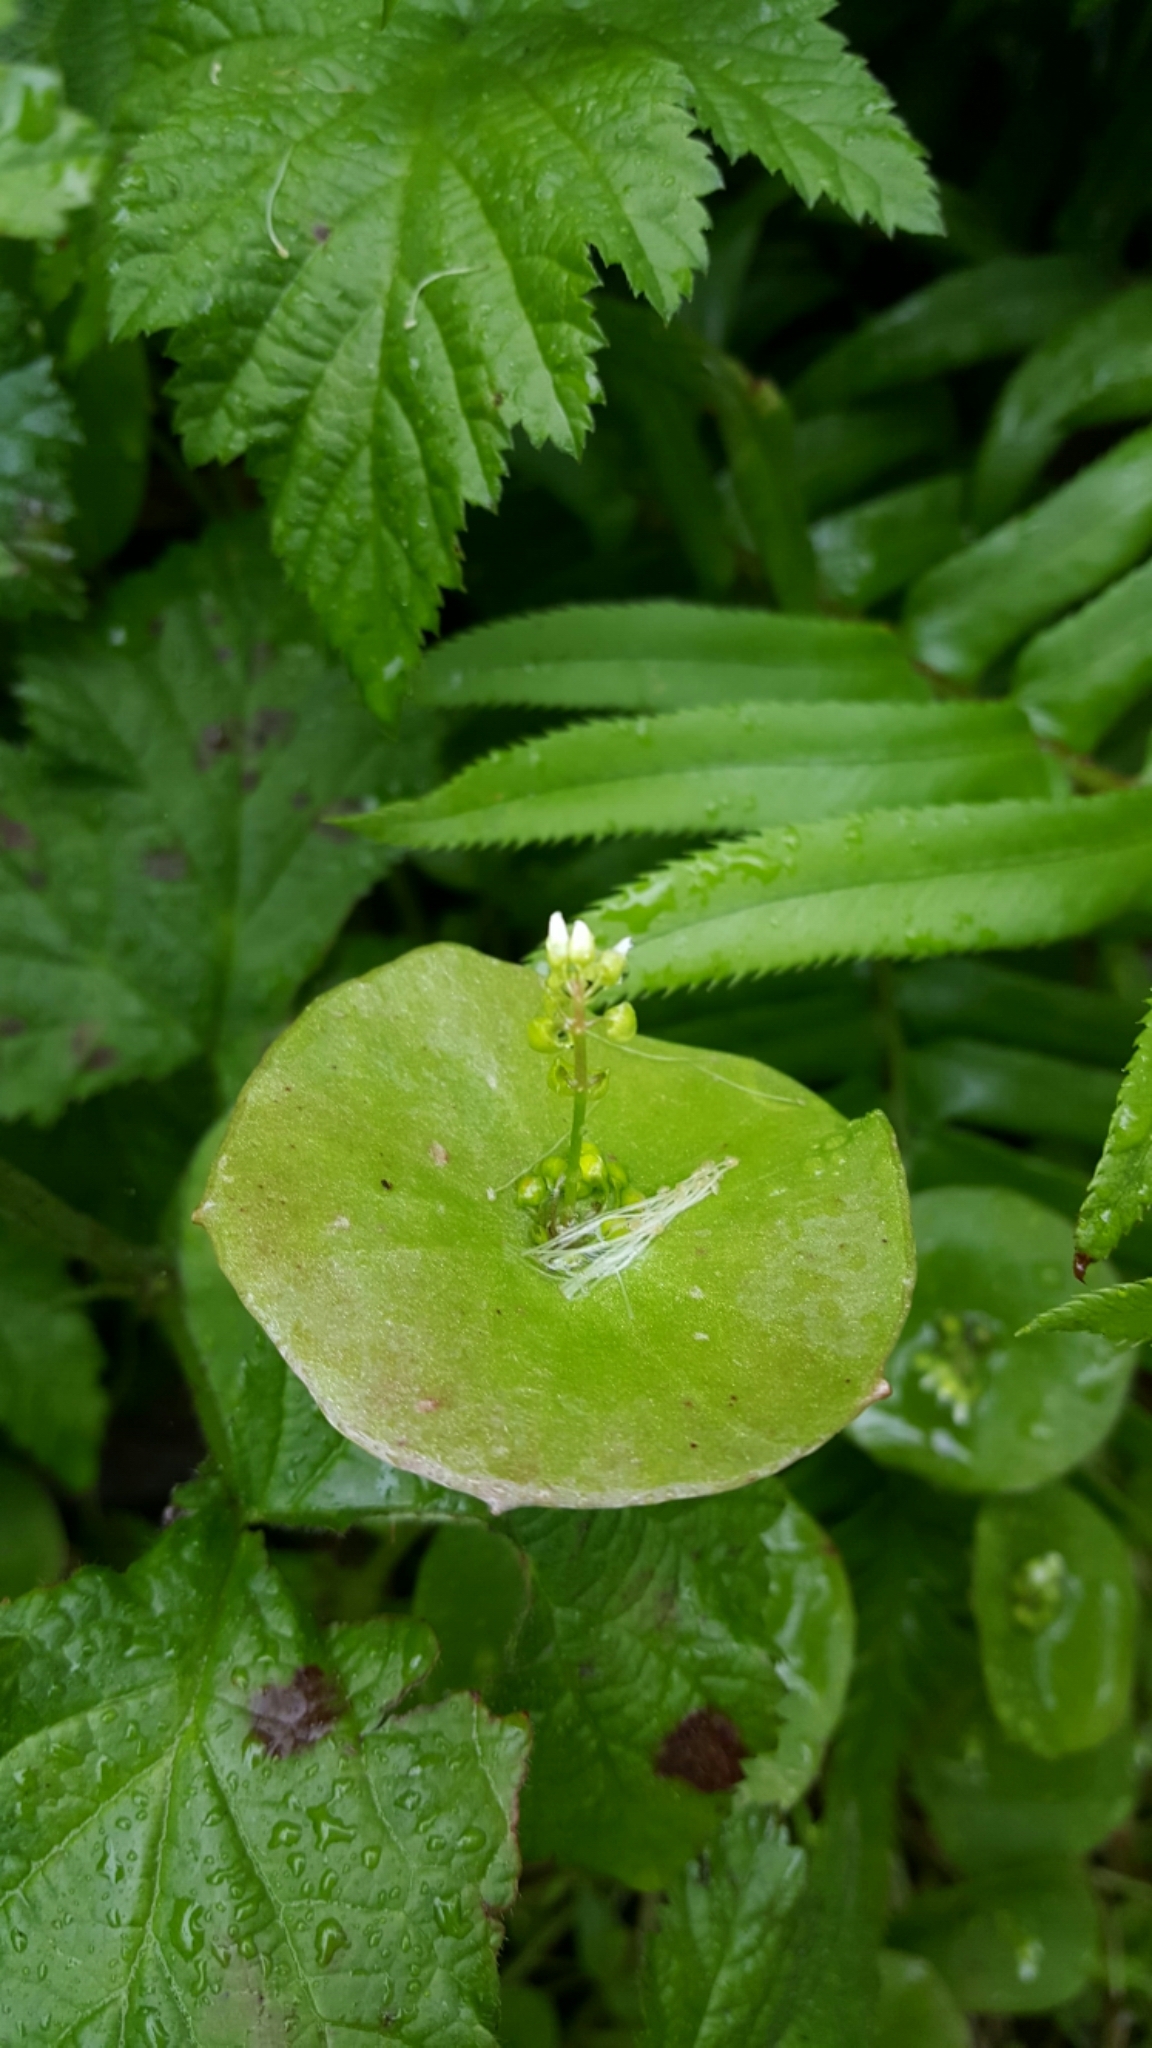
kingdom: Plantae
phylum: Tracheophyta
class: Magnoliopsida
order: Caryophyllales
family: Montiaceae
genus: Claytonia
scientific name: Claytonia perfoliata
